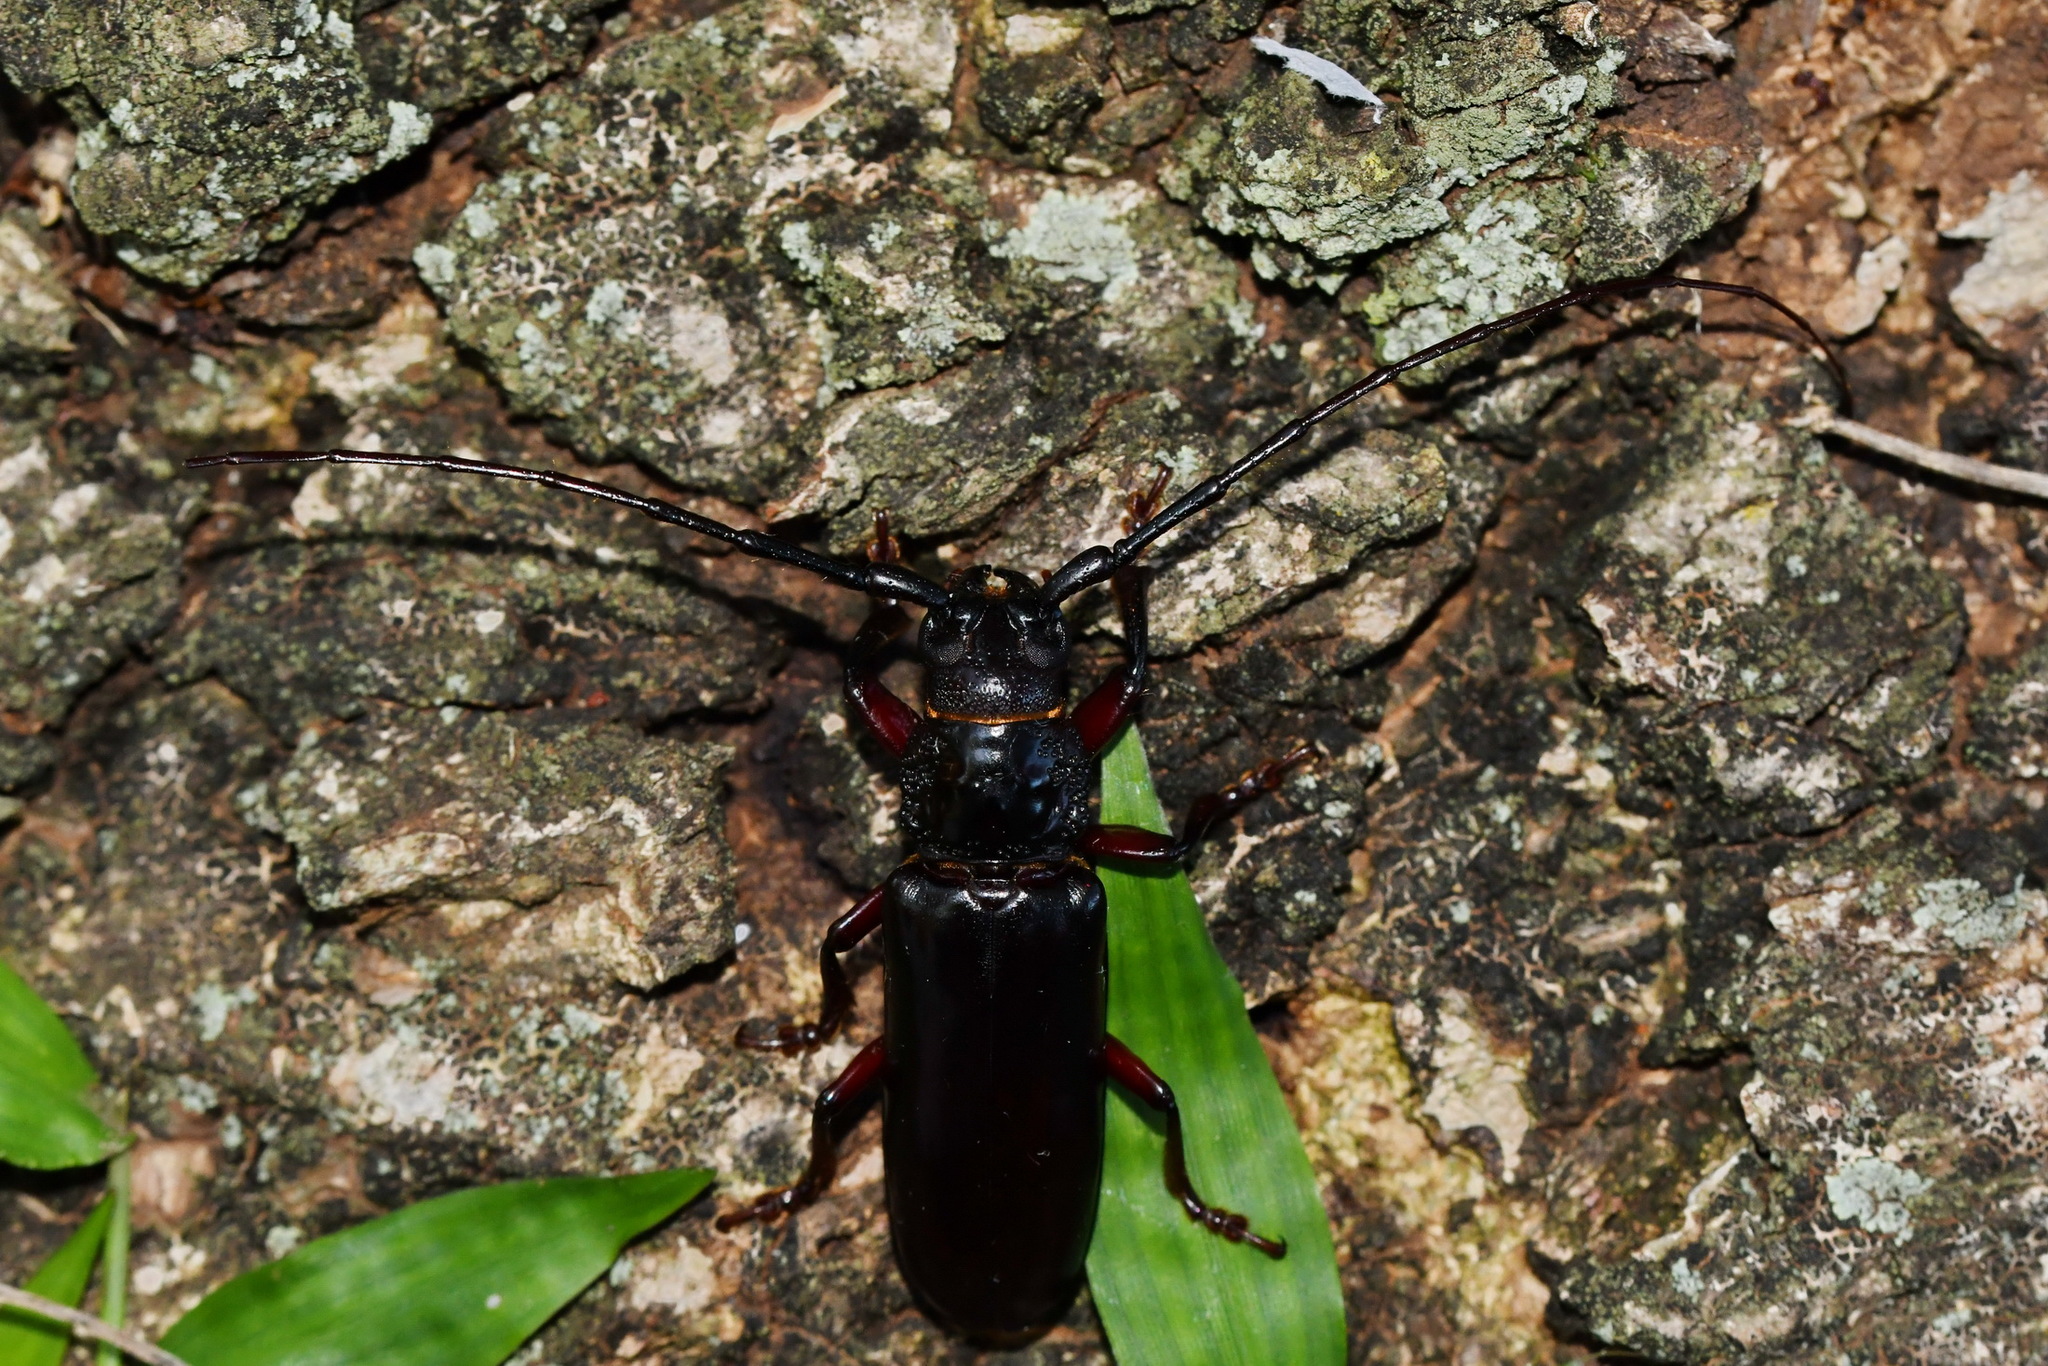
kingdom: Animalia
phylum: Arthropoda
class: Insecta
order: Coleoptera
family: Cerambycidae
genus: Butherium
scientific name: Butherium erythropus
